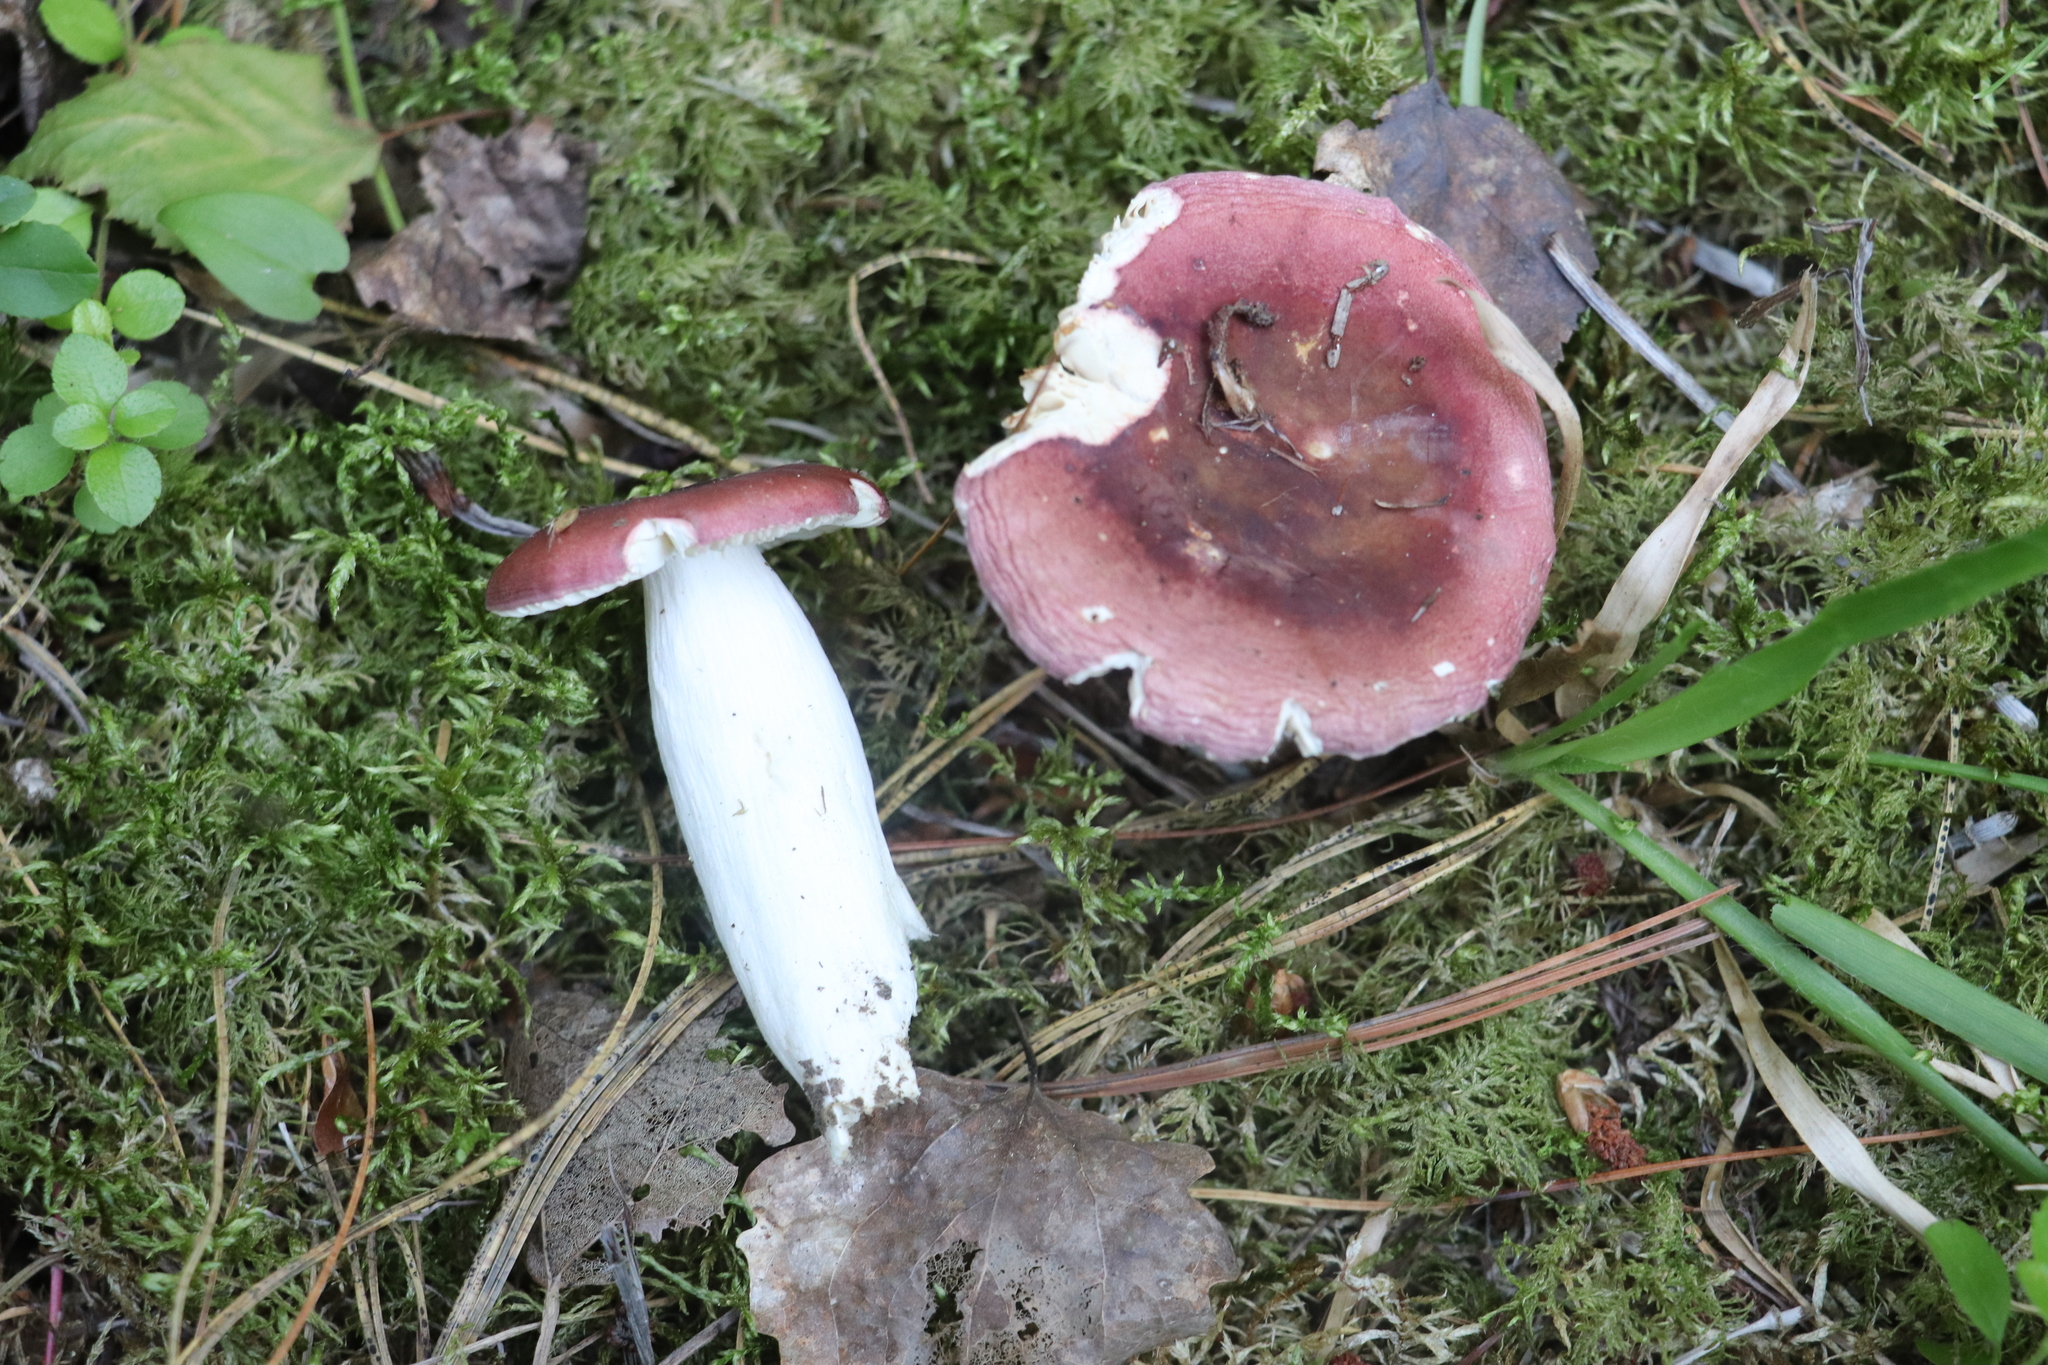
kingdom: Fungi
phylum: Basidiomycota
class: Agaricomycetes
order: Russulales
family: Russulaceae
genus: Russula
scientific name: Russula turci
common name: Pirate brittlegill
